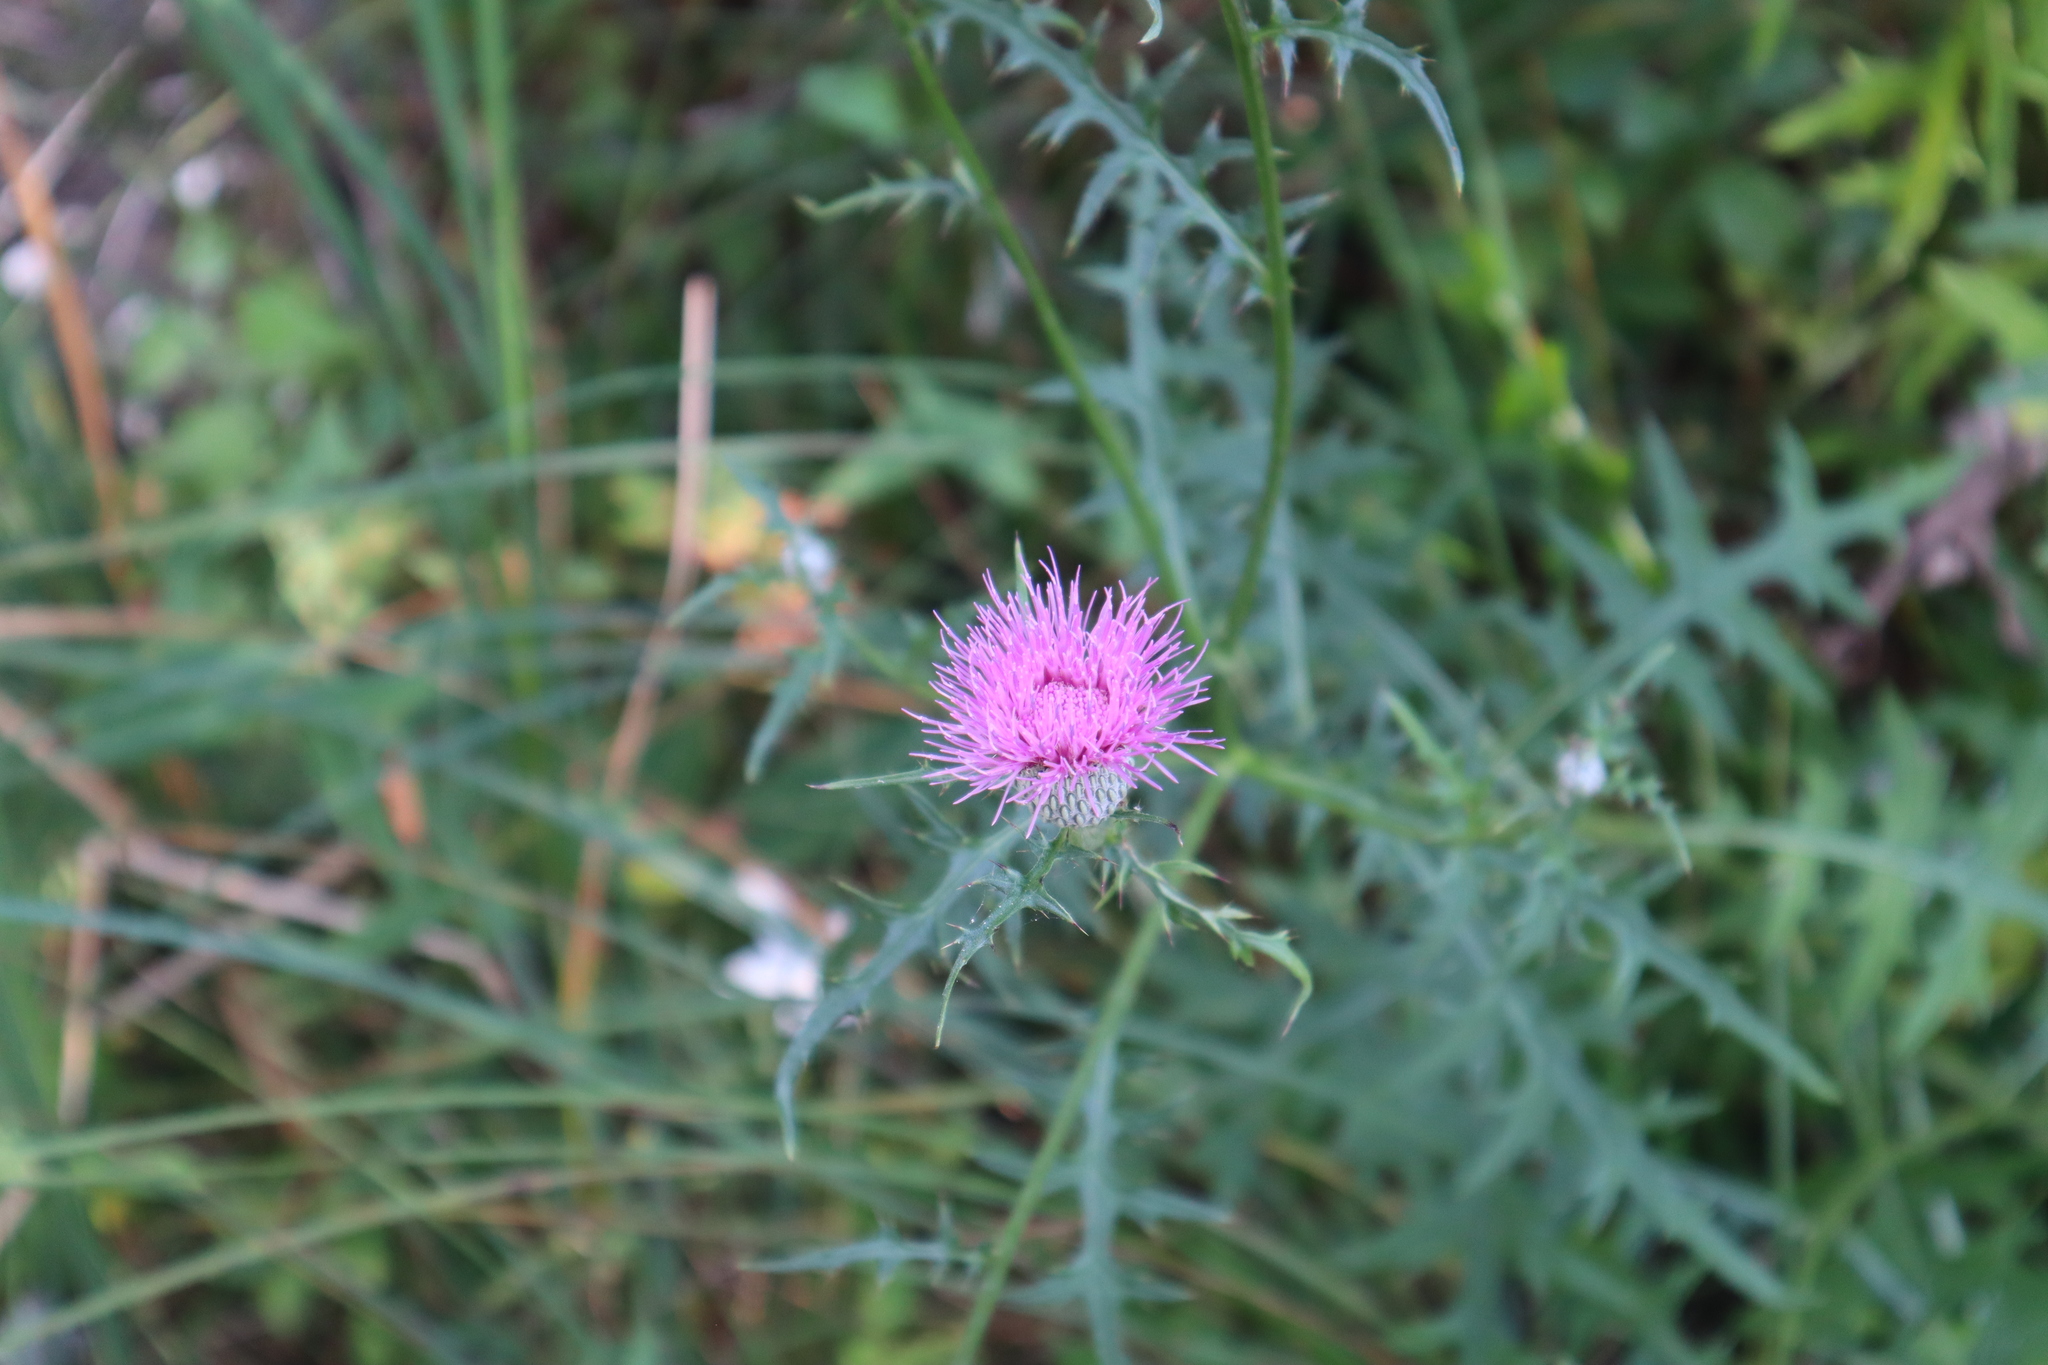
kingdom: Plantae
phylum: Tracheophyta
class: Magnoliopsida
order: Asterales
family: Asteraceae
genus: Cirsium
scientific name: Cirsium muticum
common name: Dunce-nettle
